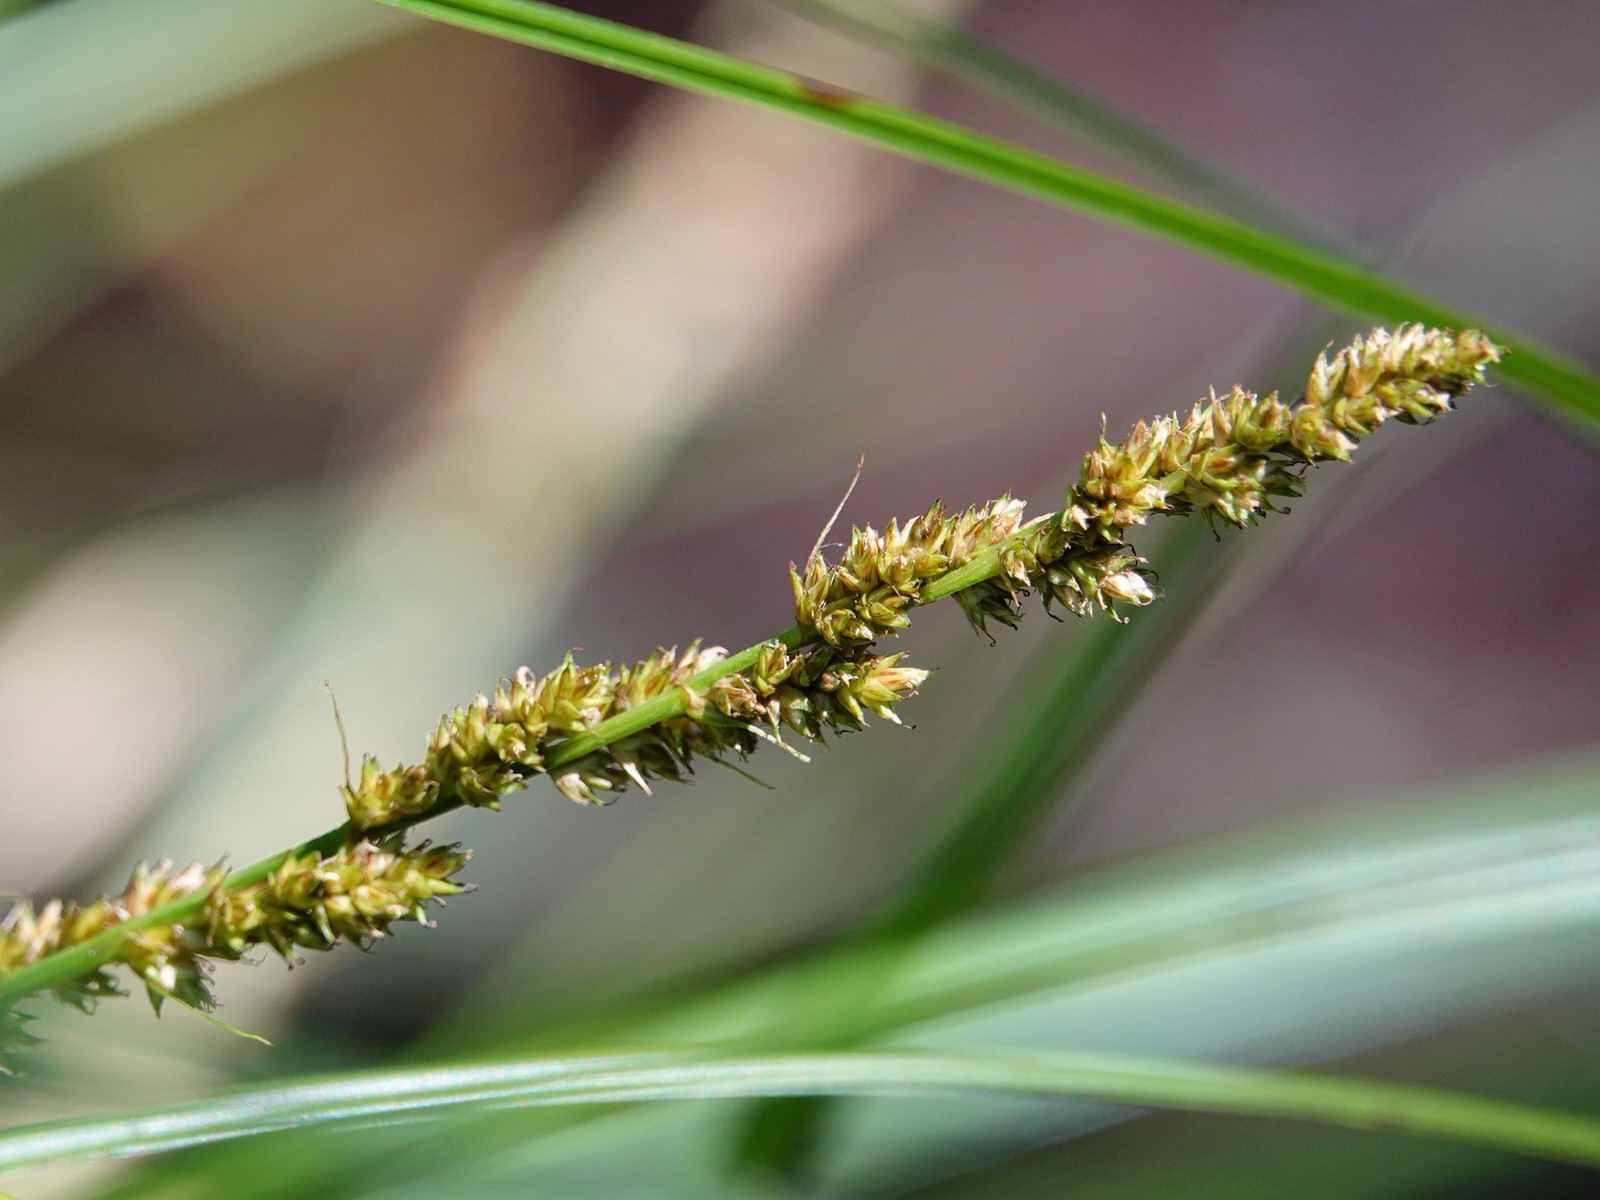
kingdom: Plantae
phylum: Tracheophyta
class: Liliopsida
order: Poales
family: Cyperaceae
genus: Carex
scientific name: Carex virgata
